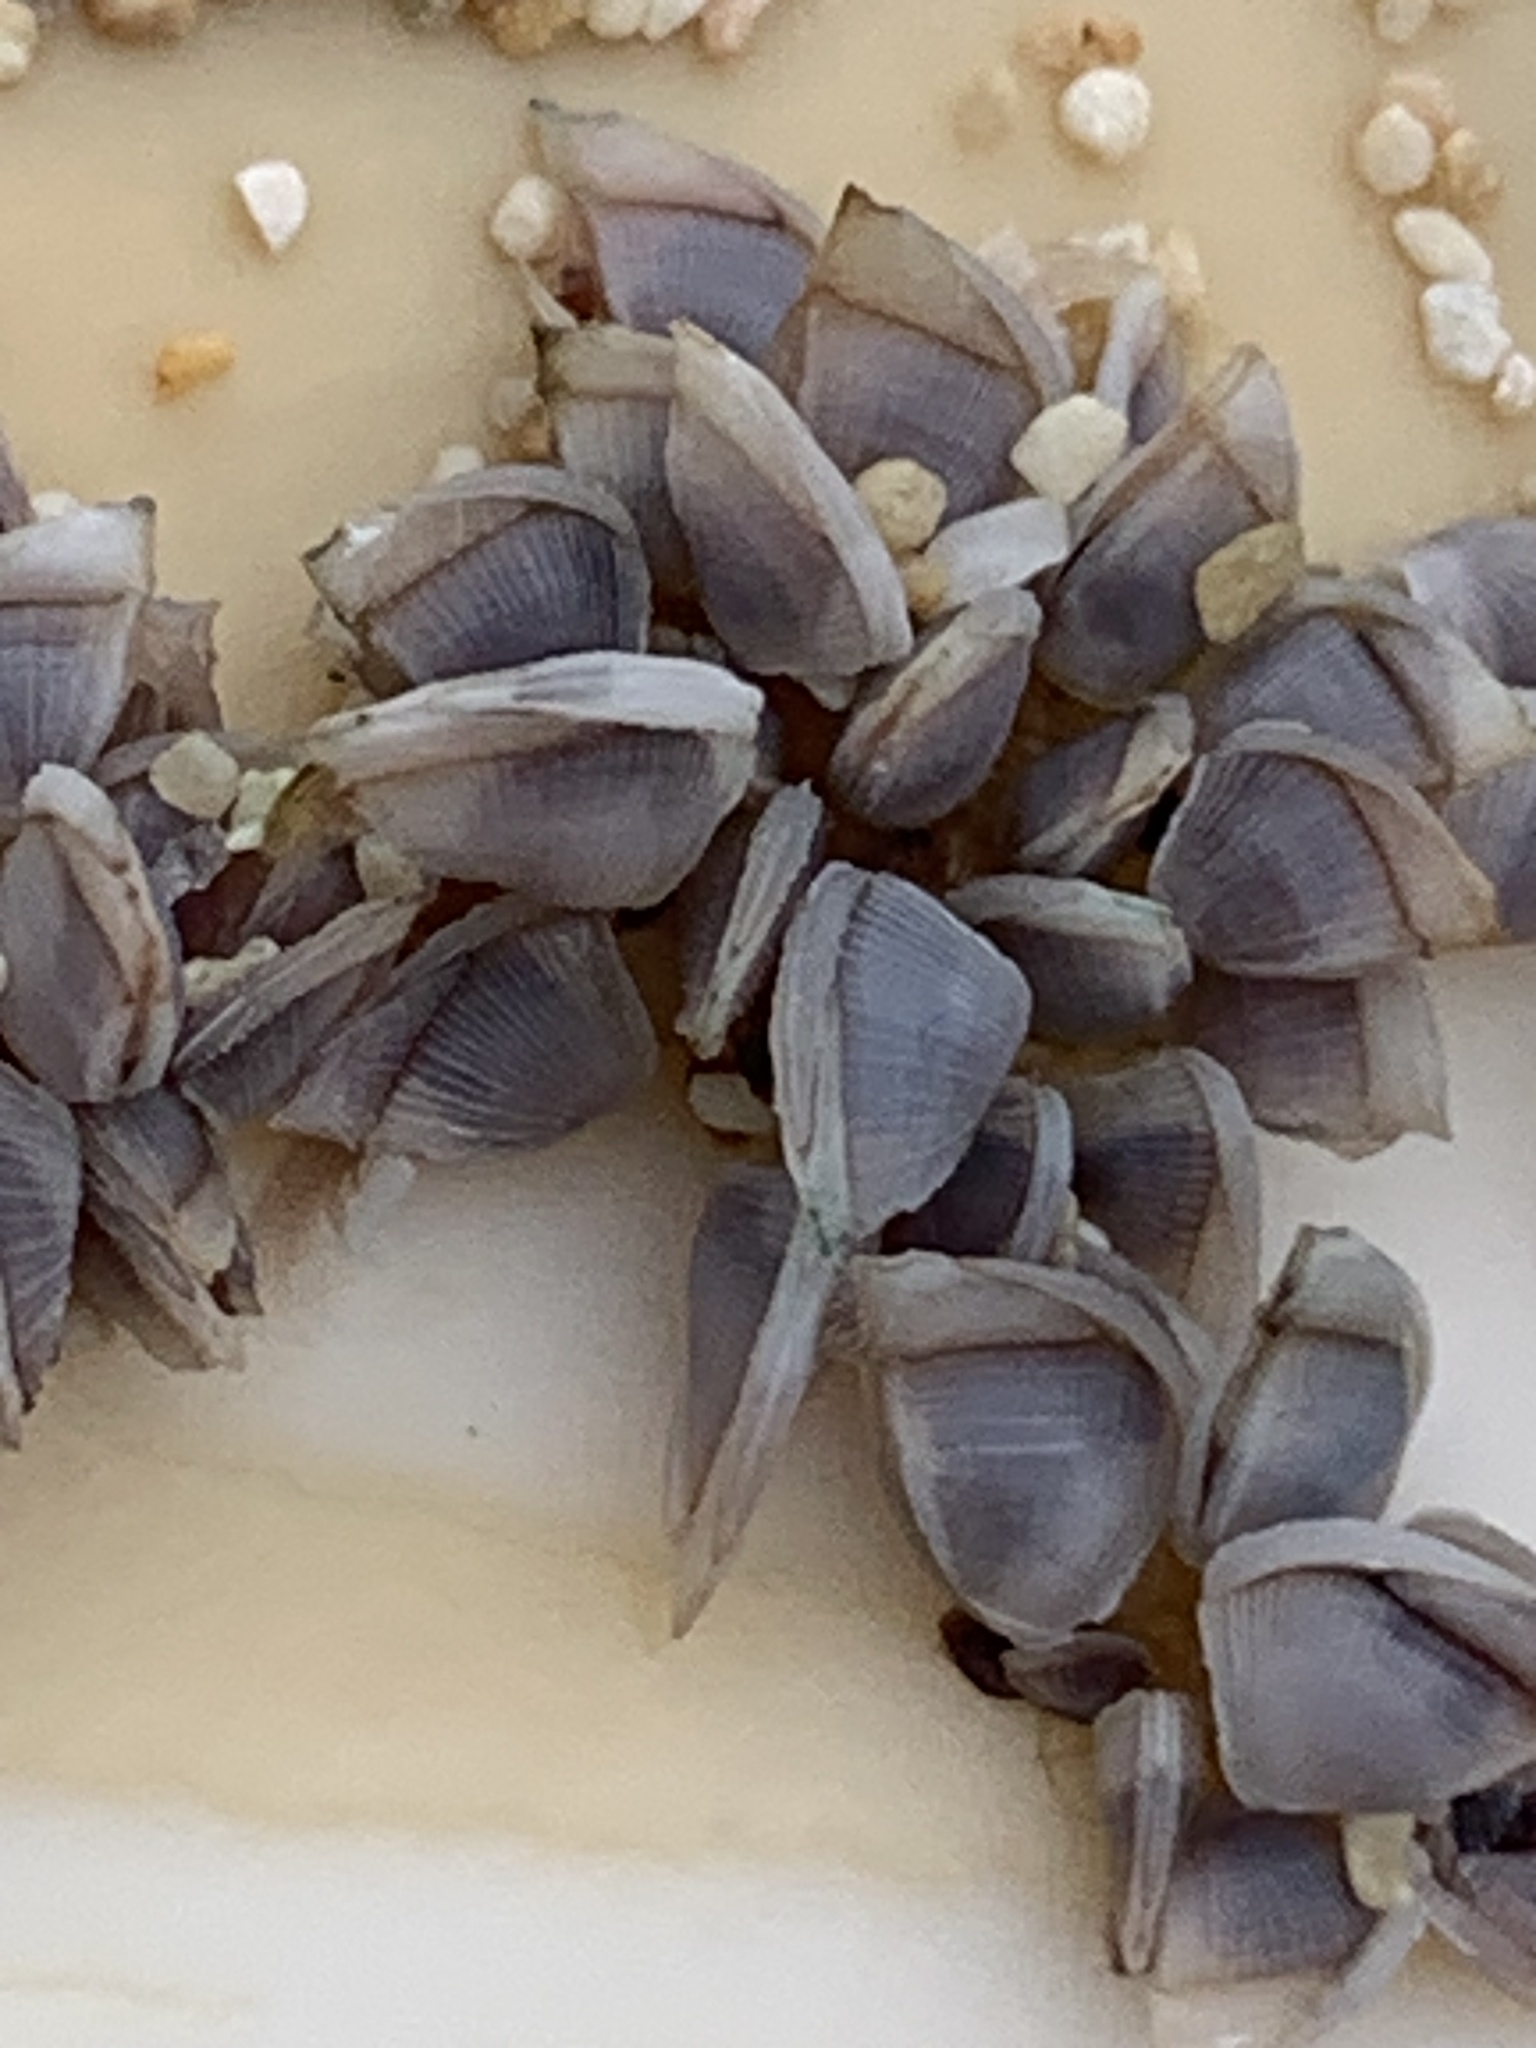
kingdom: Animalia
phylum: Arthropoda
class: Maxillopoda
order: Pedunculata
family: Lepadidae
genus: Lepas
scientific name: Lepas pectinata
